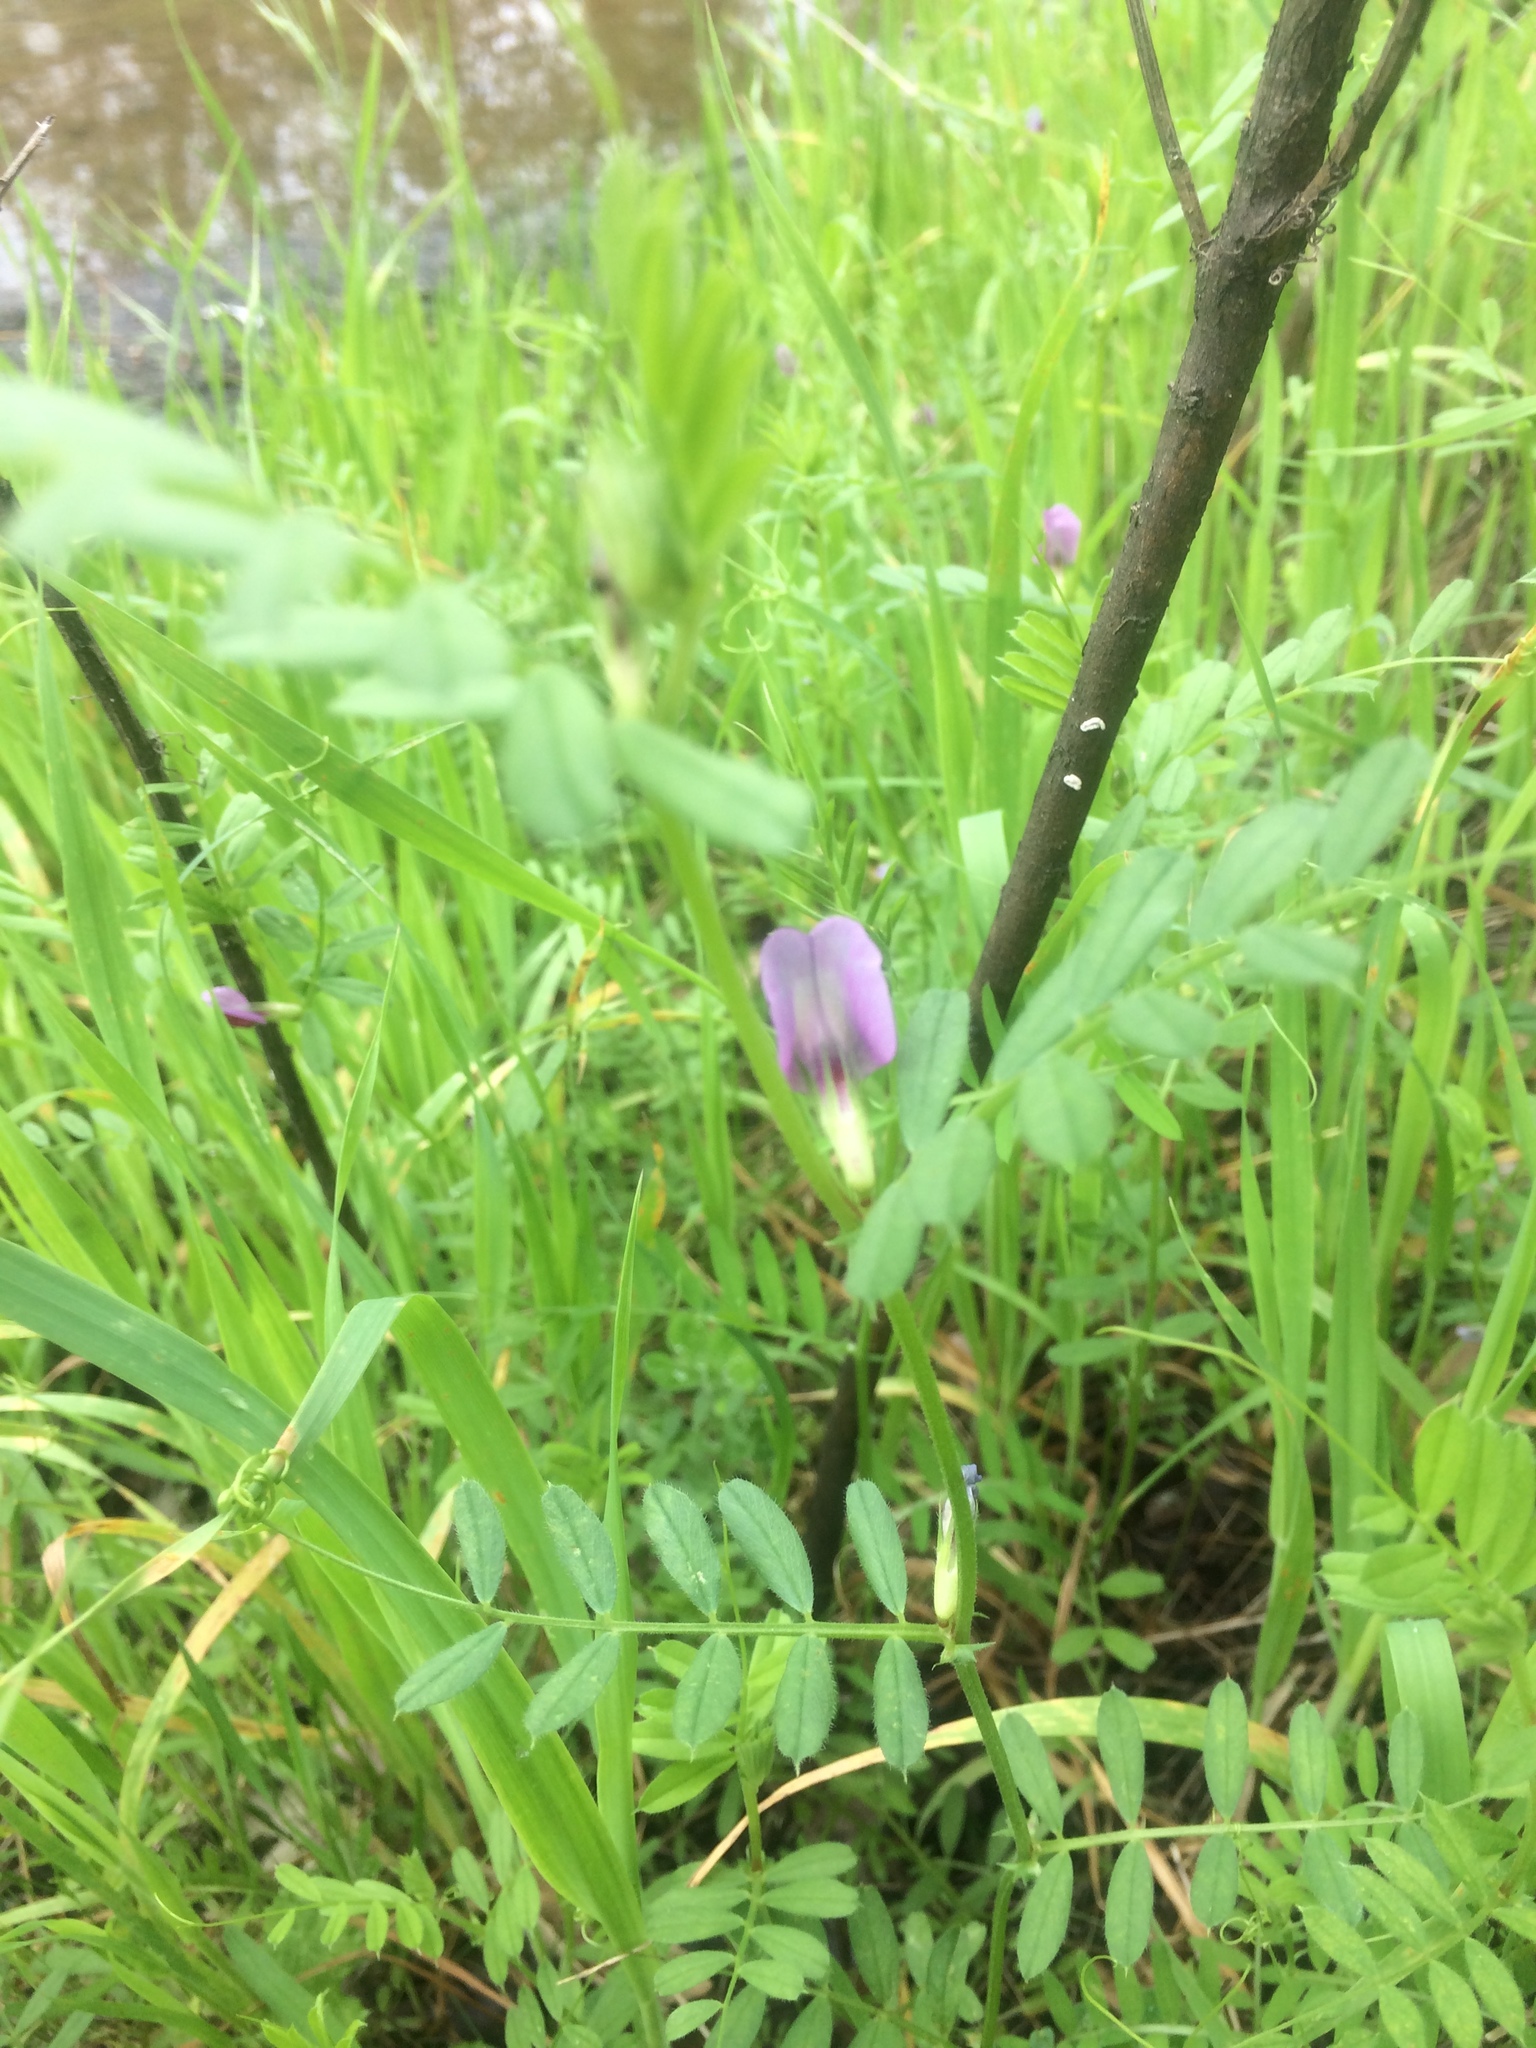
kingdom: Plantae
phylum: Tracheophyta
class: Magnoliopsida
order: Fabales
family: Fabaceae
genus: Vicia
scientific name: Vicia sativa
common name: Garden vetch
